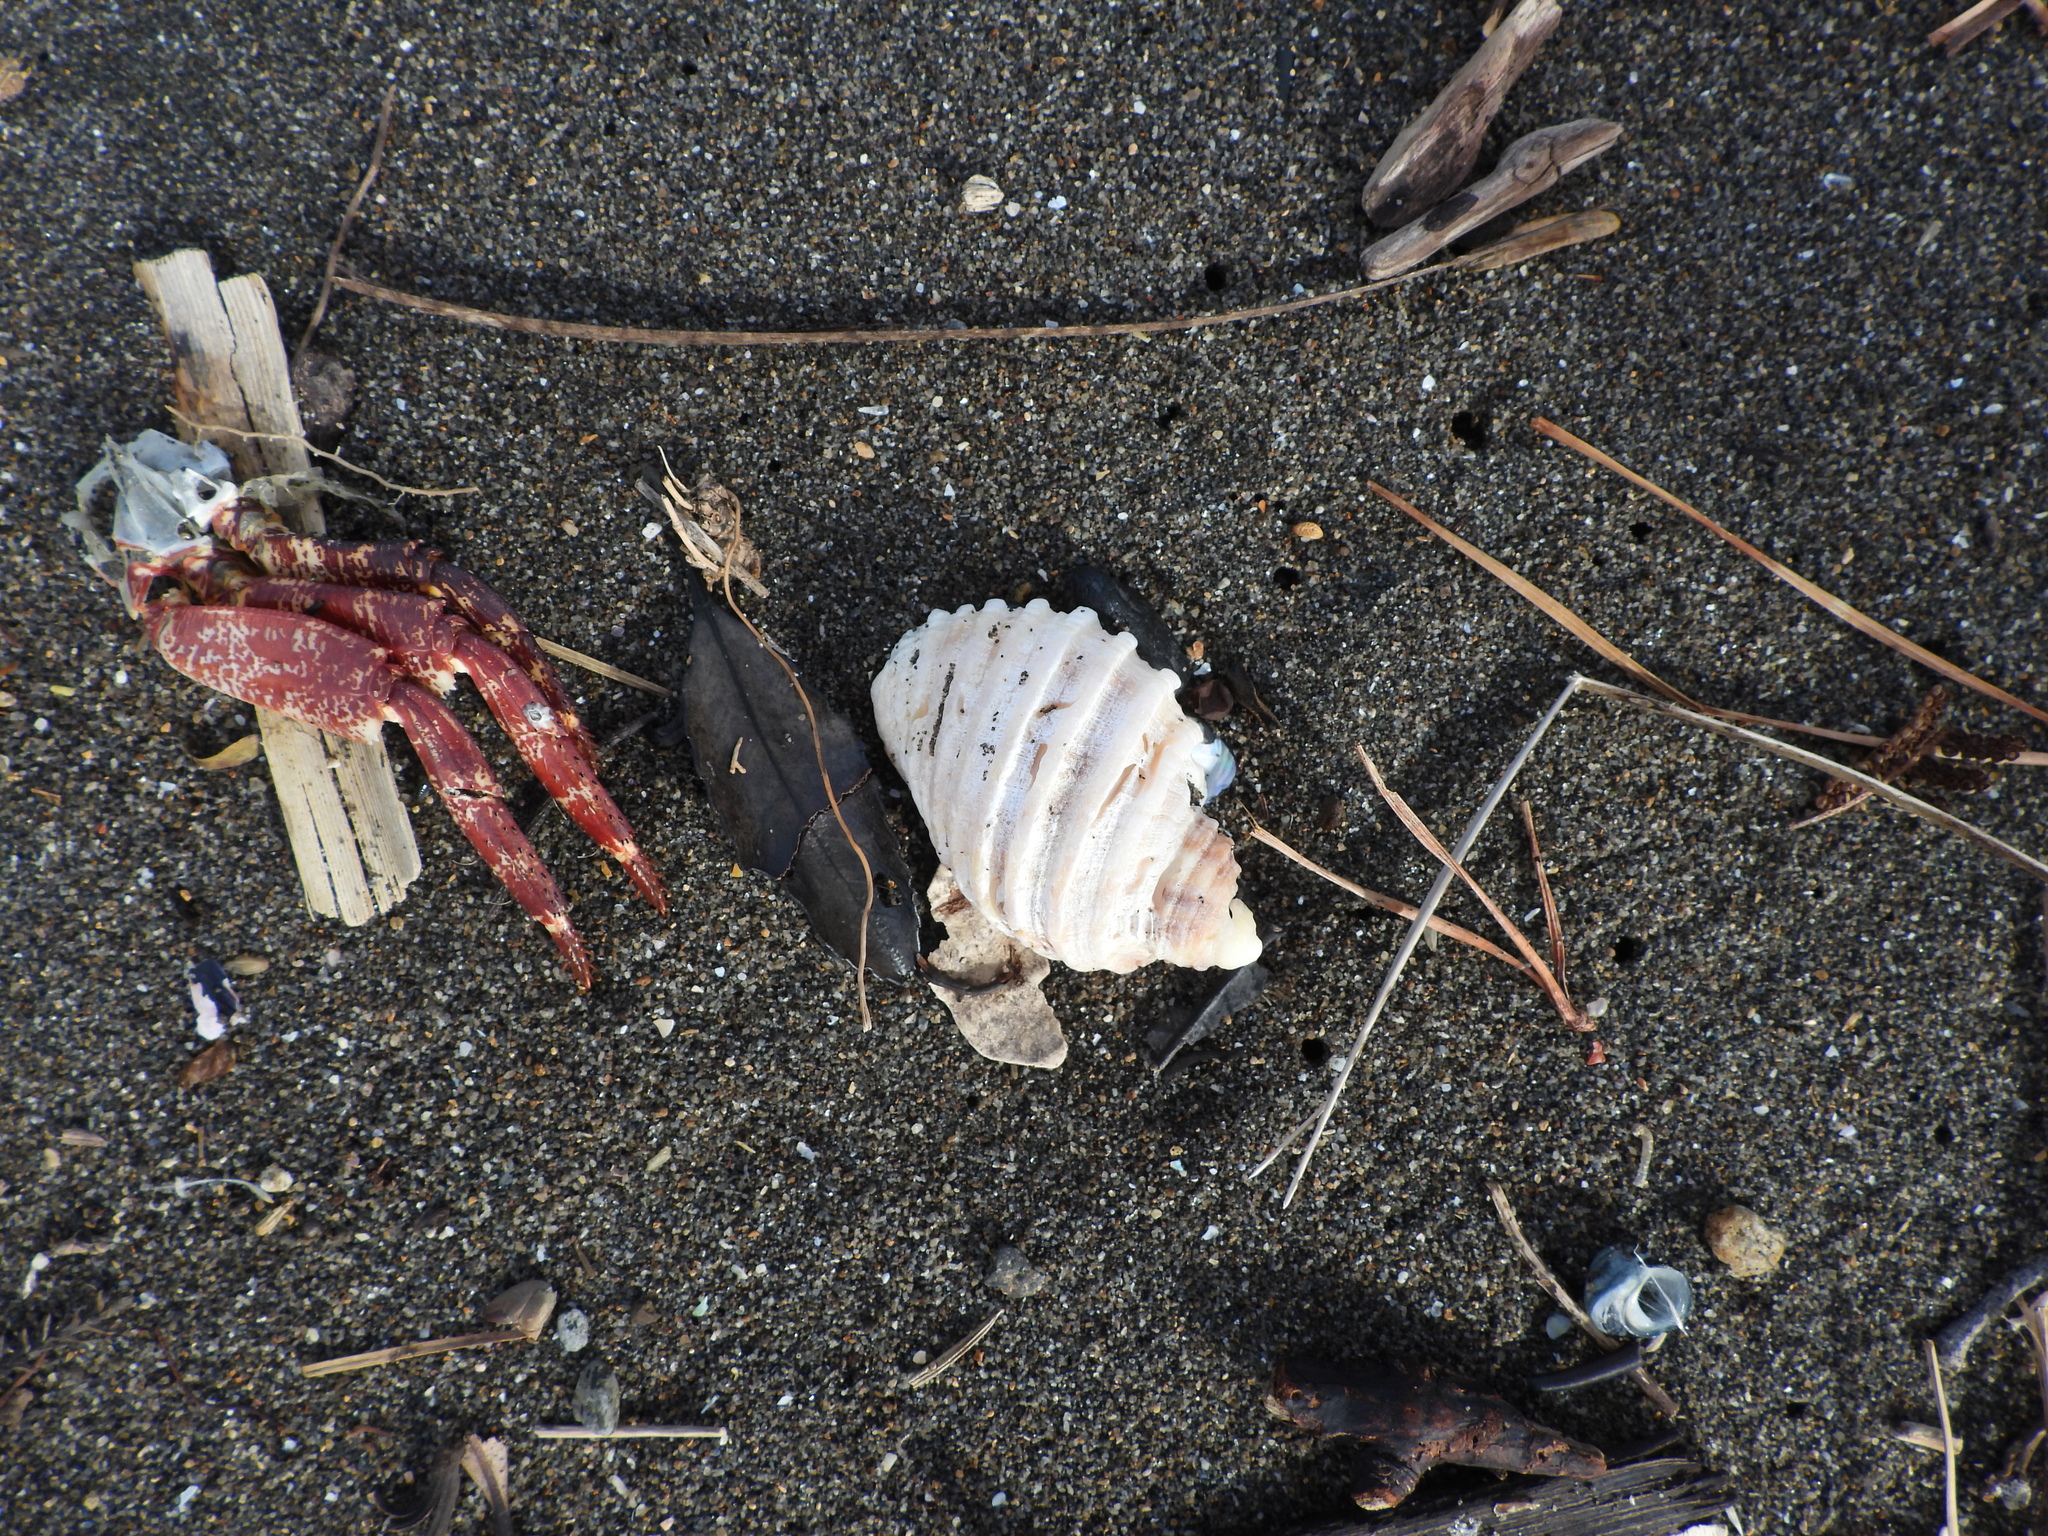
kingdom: Animalia
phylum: Mollusca
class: Gastropoda
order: Neogastropoda
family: Muricidae
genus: Dicathais
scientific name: Dicathais orbita
